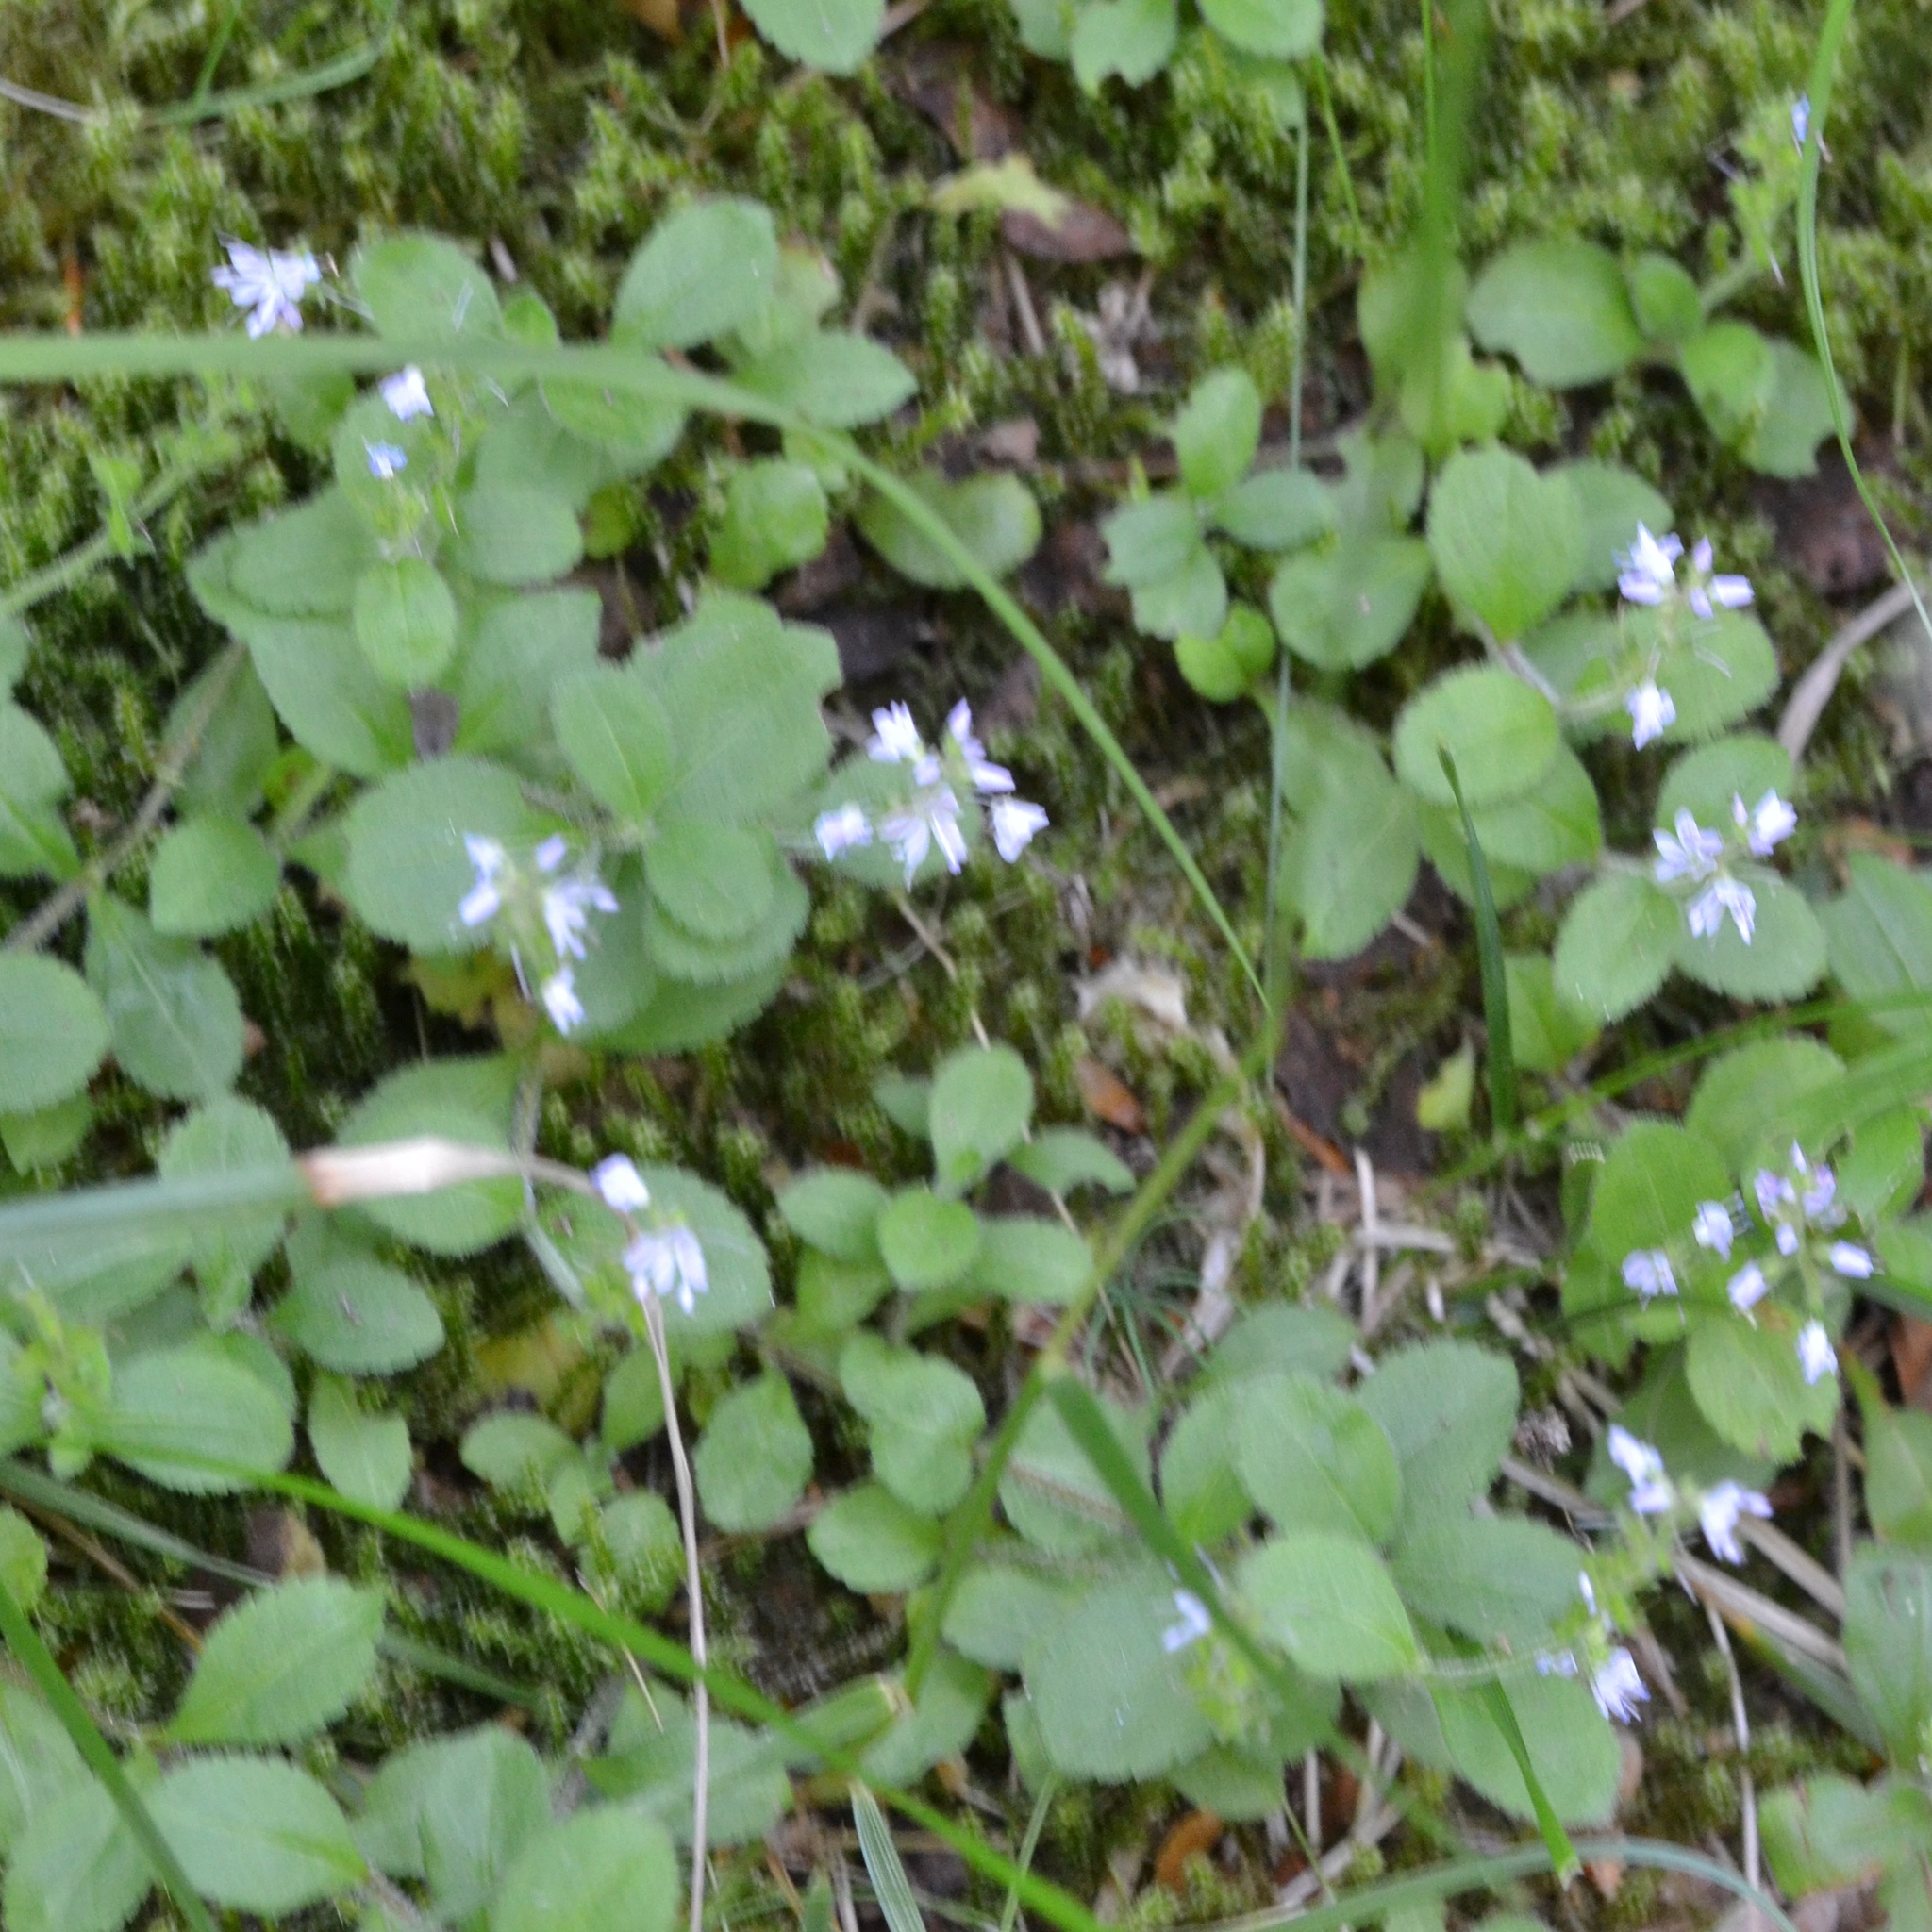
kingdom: Plantae
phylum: Tracheophyta
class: Magnoliopsida
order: Lamiales
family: Plantaginaceae
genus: Veronica
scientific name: Veronica officinalis
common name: Common speedwell
